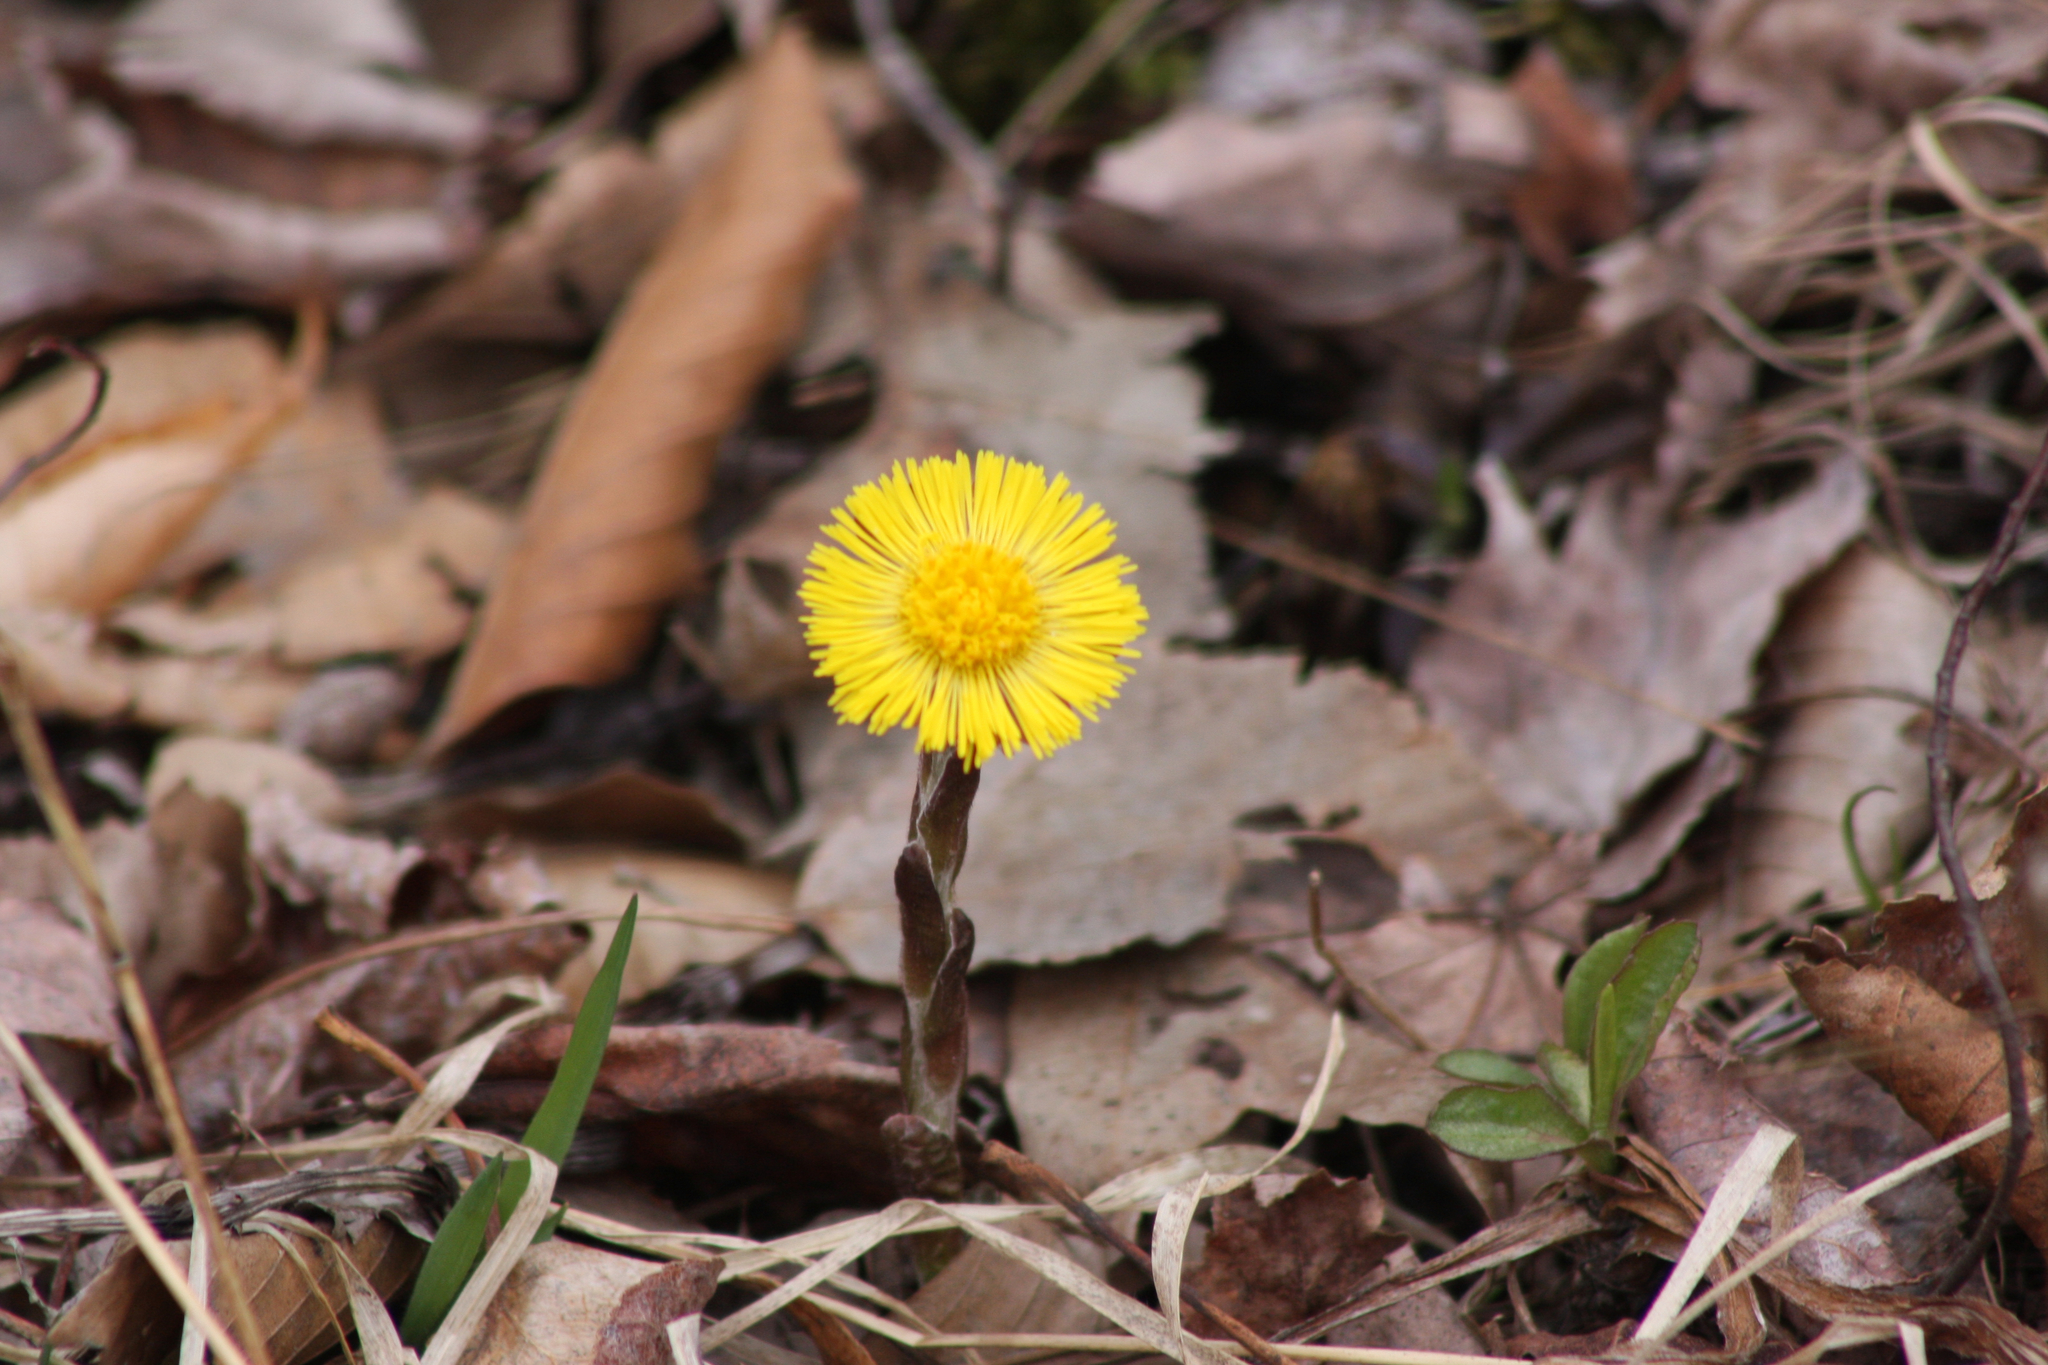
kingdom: Plantae
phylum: Tracheophyta
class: Magnoliopsida
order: Asterales
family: Asteraceae
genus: Tussilago
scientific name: Tussilago farfara
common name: Coltsfoot
